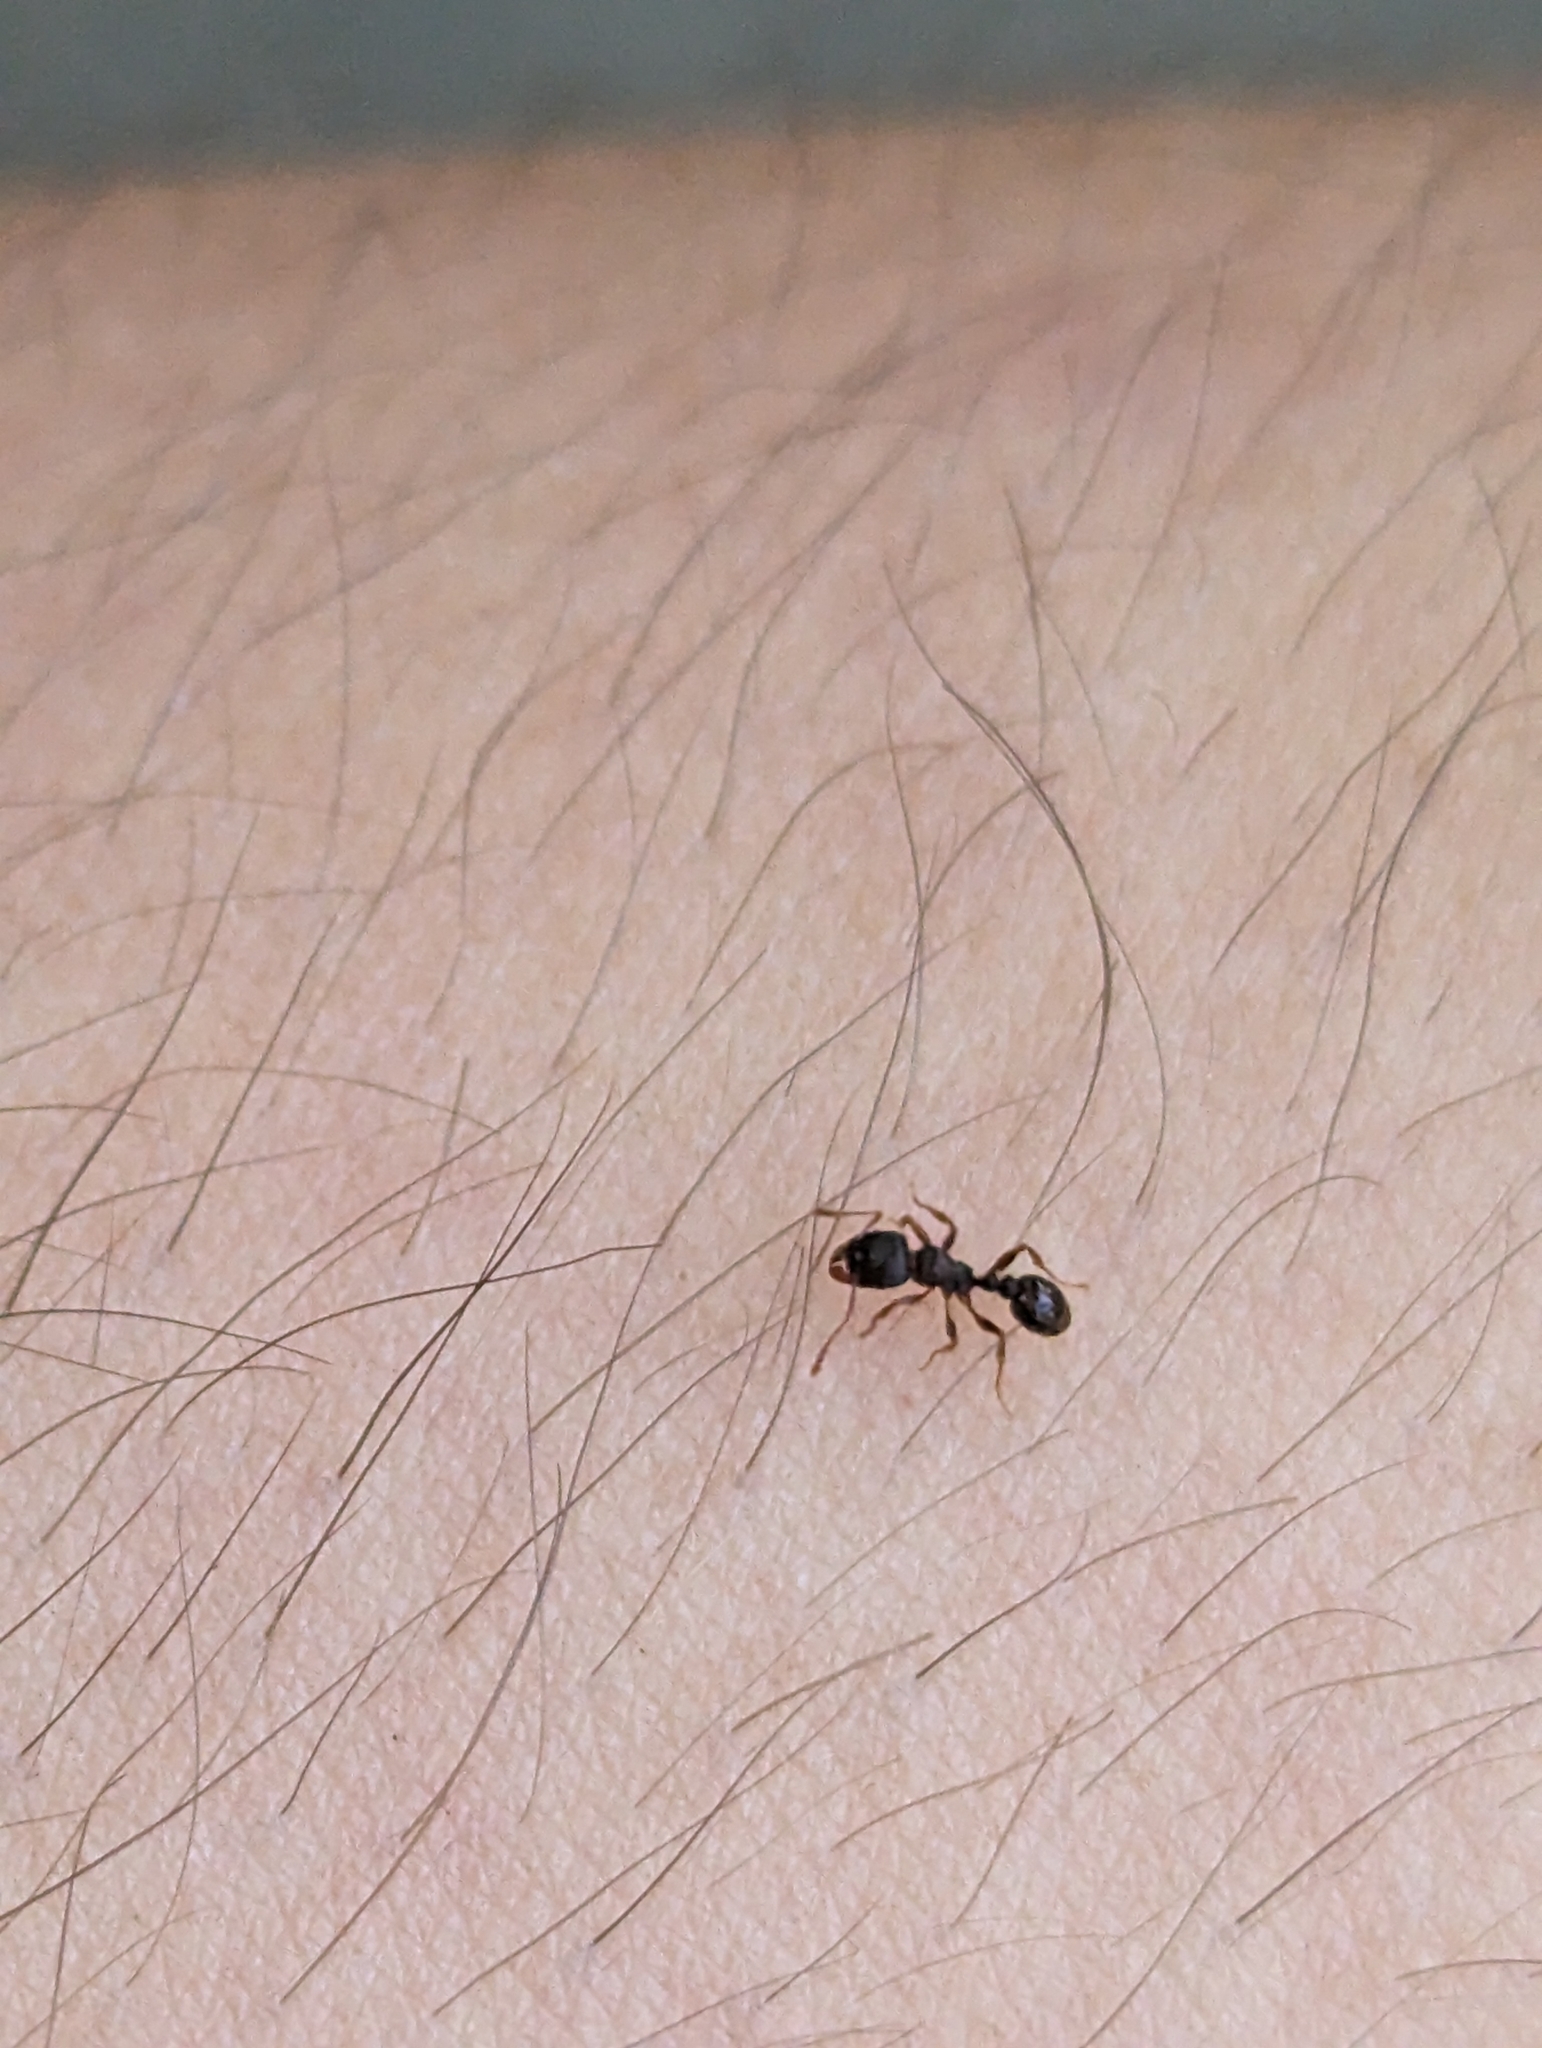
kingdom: Animalia
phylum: Arthropoda
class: Insecta
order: Hymenoptera
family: Formicidae
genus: Tetramorium
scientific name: Tetramorium immigrans
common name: Pavement ant
